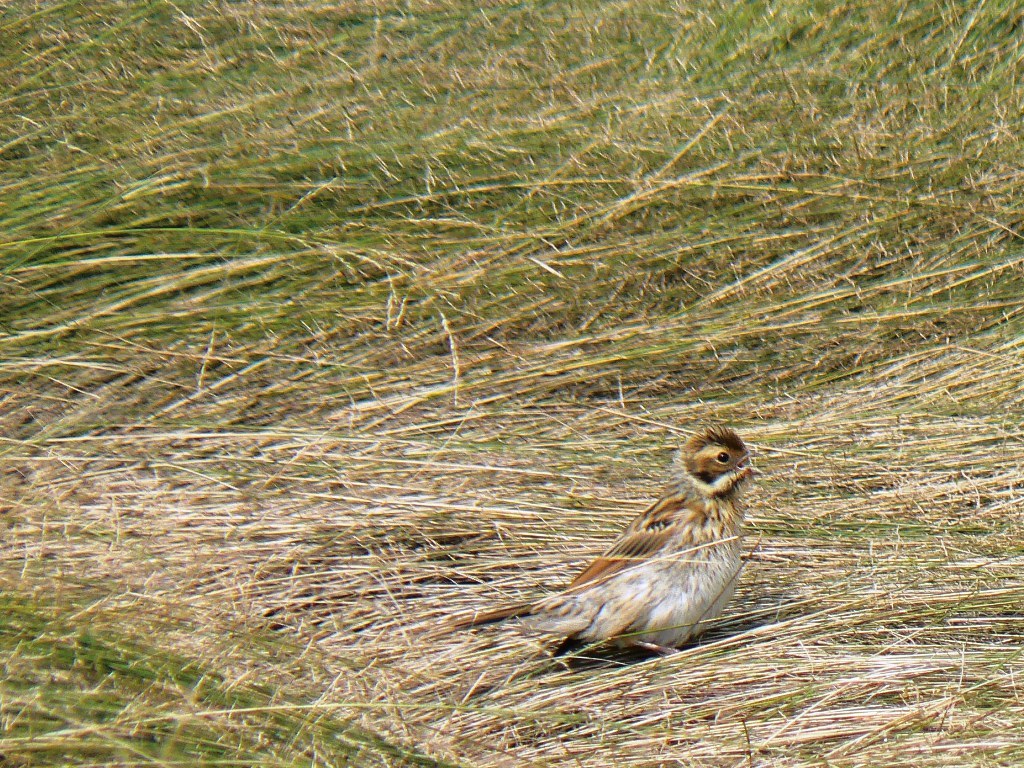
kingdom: Animalia
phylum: Chordata
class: Aves
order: Passeriformes
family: Emberizidae
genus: Emberiza
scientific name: Emberiza schoeniclus
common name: Reed bunting
